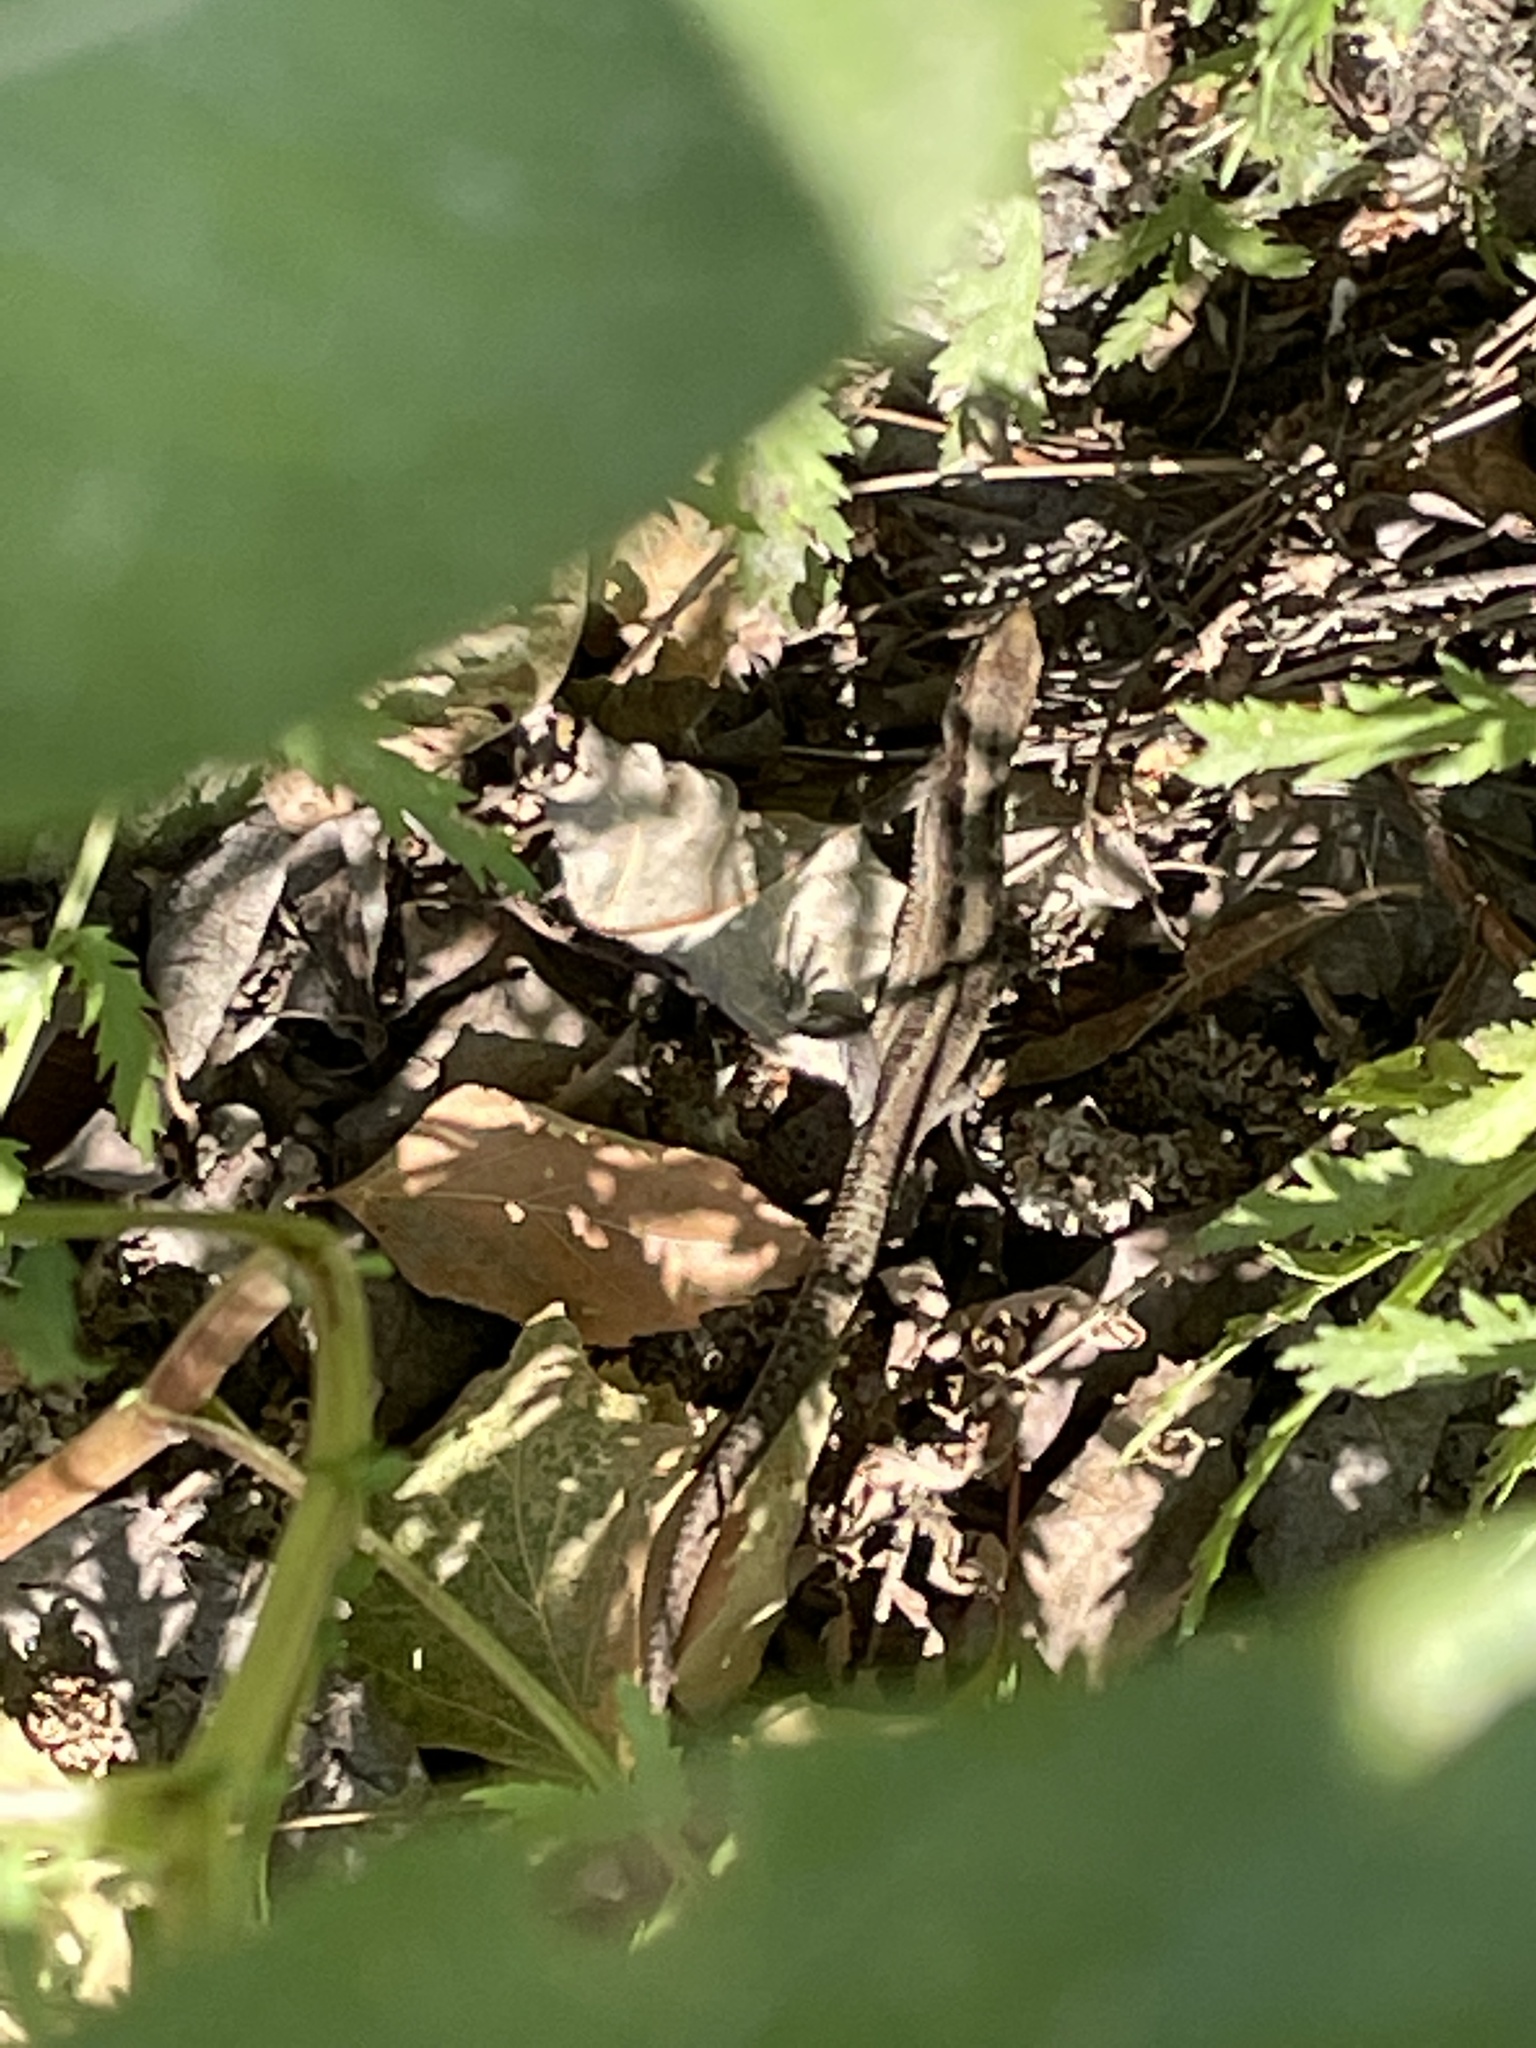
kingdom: Animalia
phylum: Chordata
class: Squamata
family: Lacertidae
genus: Zootoca
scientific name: Zootoca vivipara
